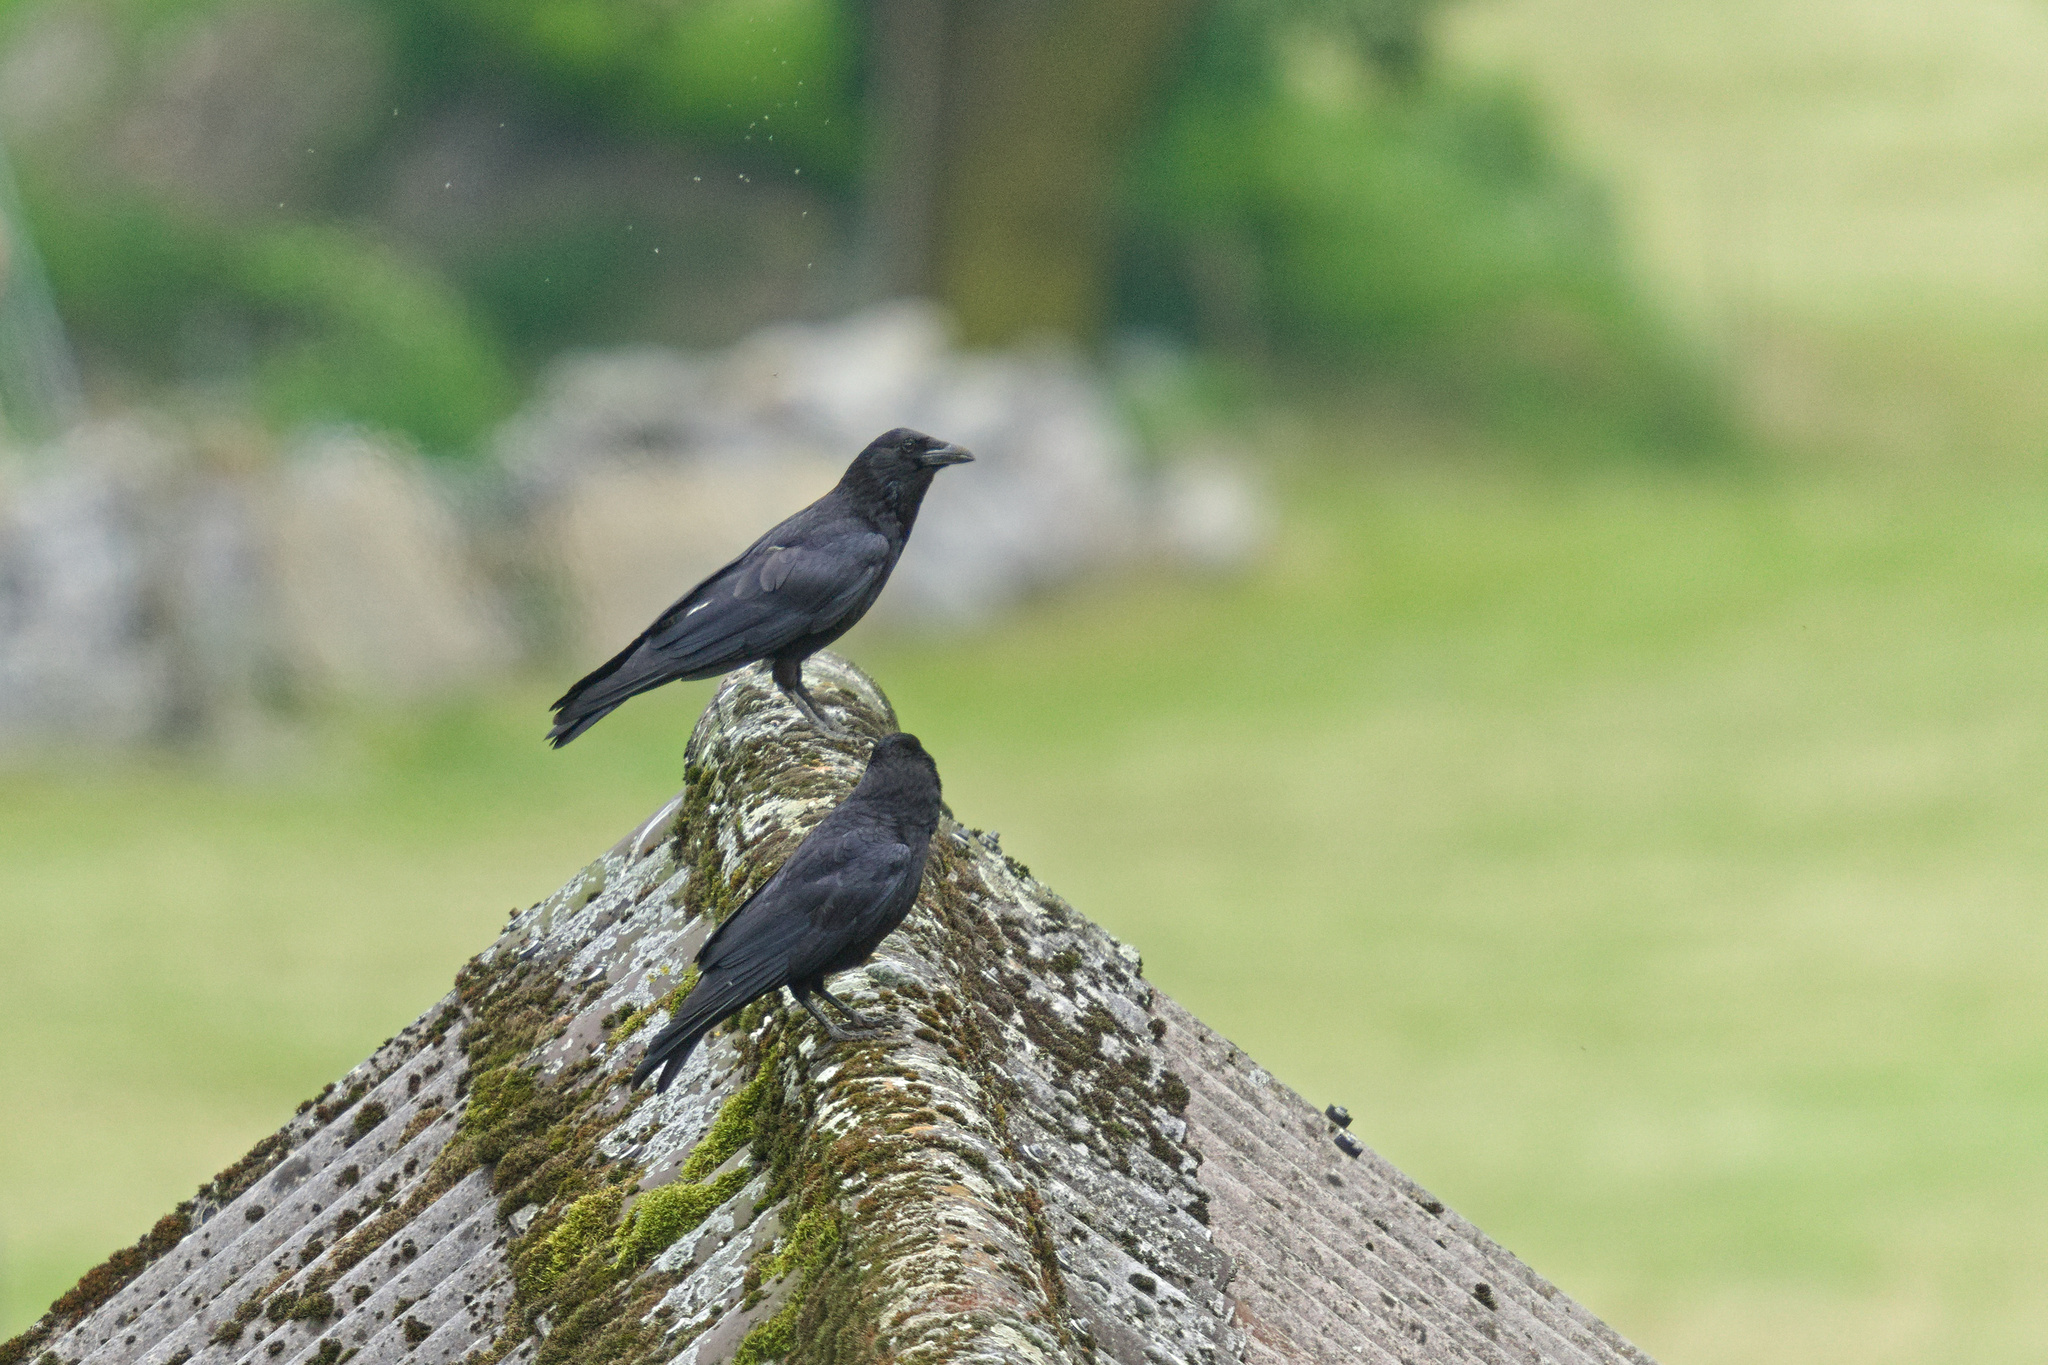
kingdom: Animalia
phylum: Chordata
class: Aves
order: Passeriformes
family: Corvidae
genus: Corvus
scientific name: Corvus corone
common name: Carrion crow
